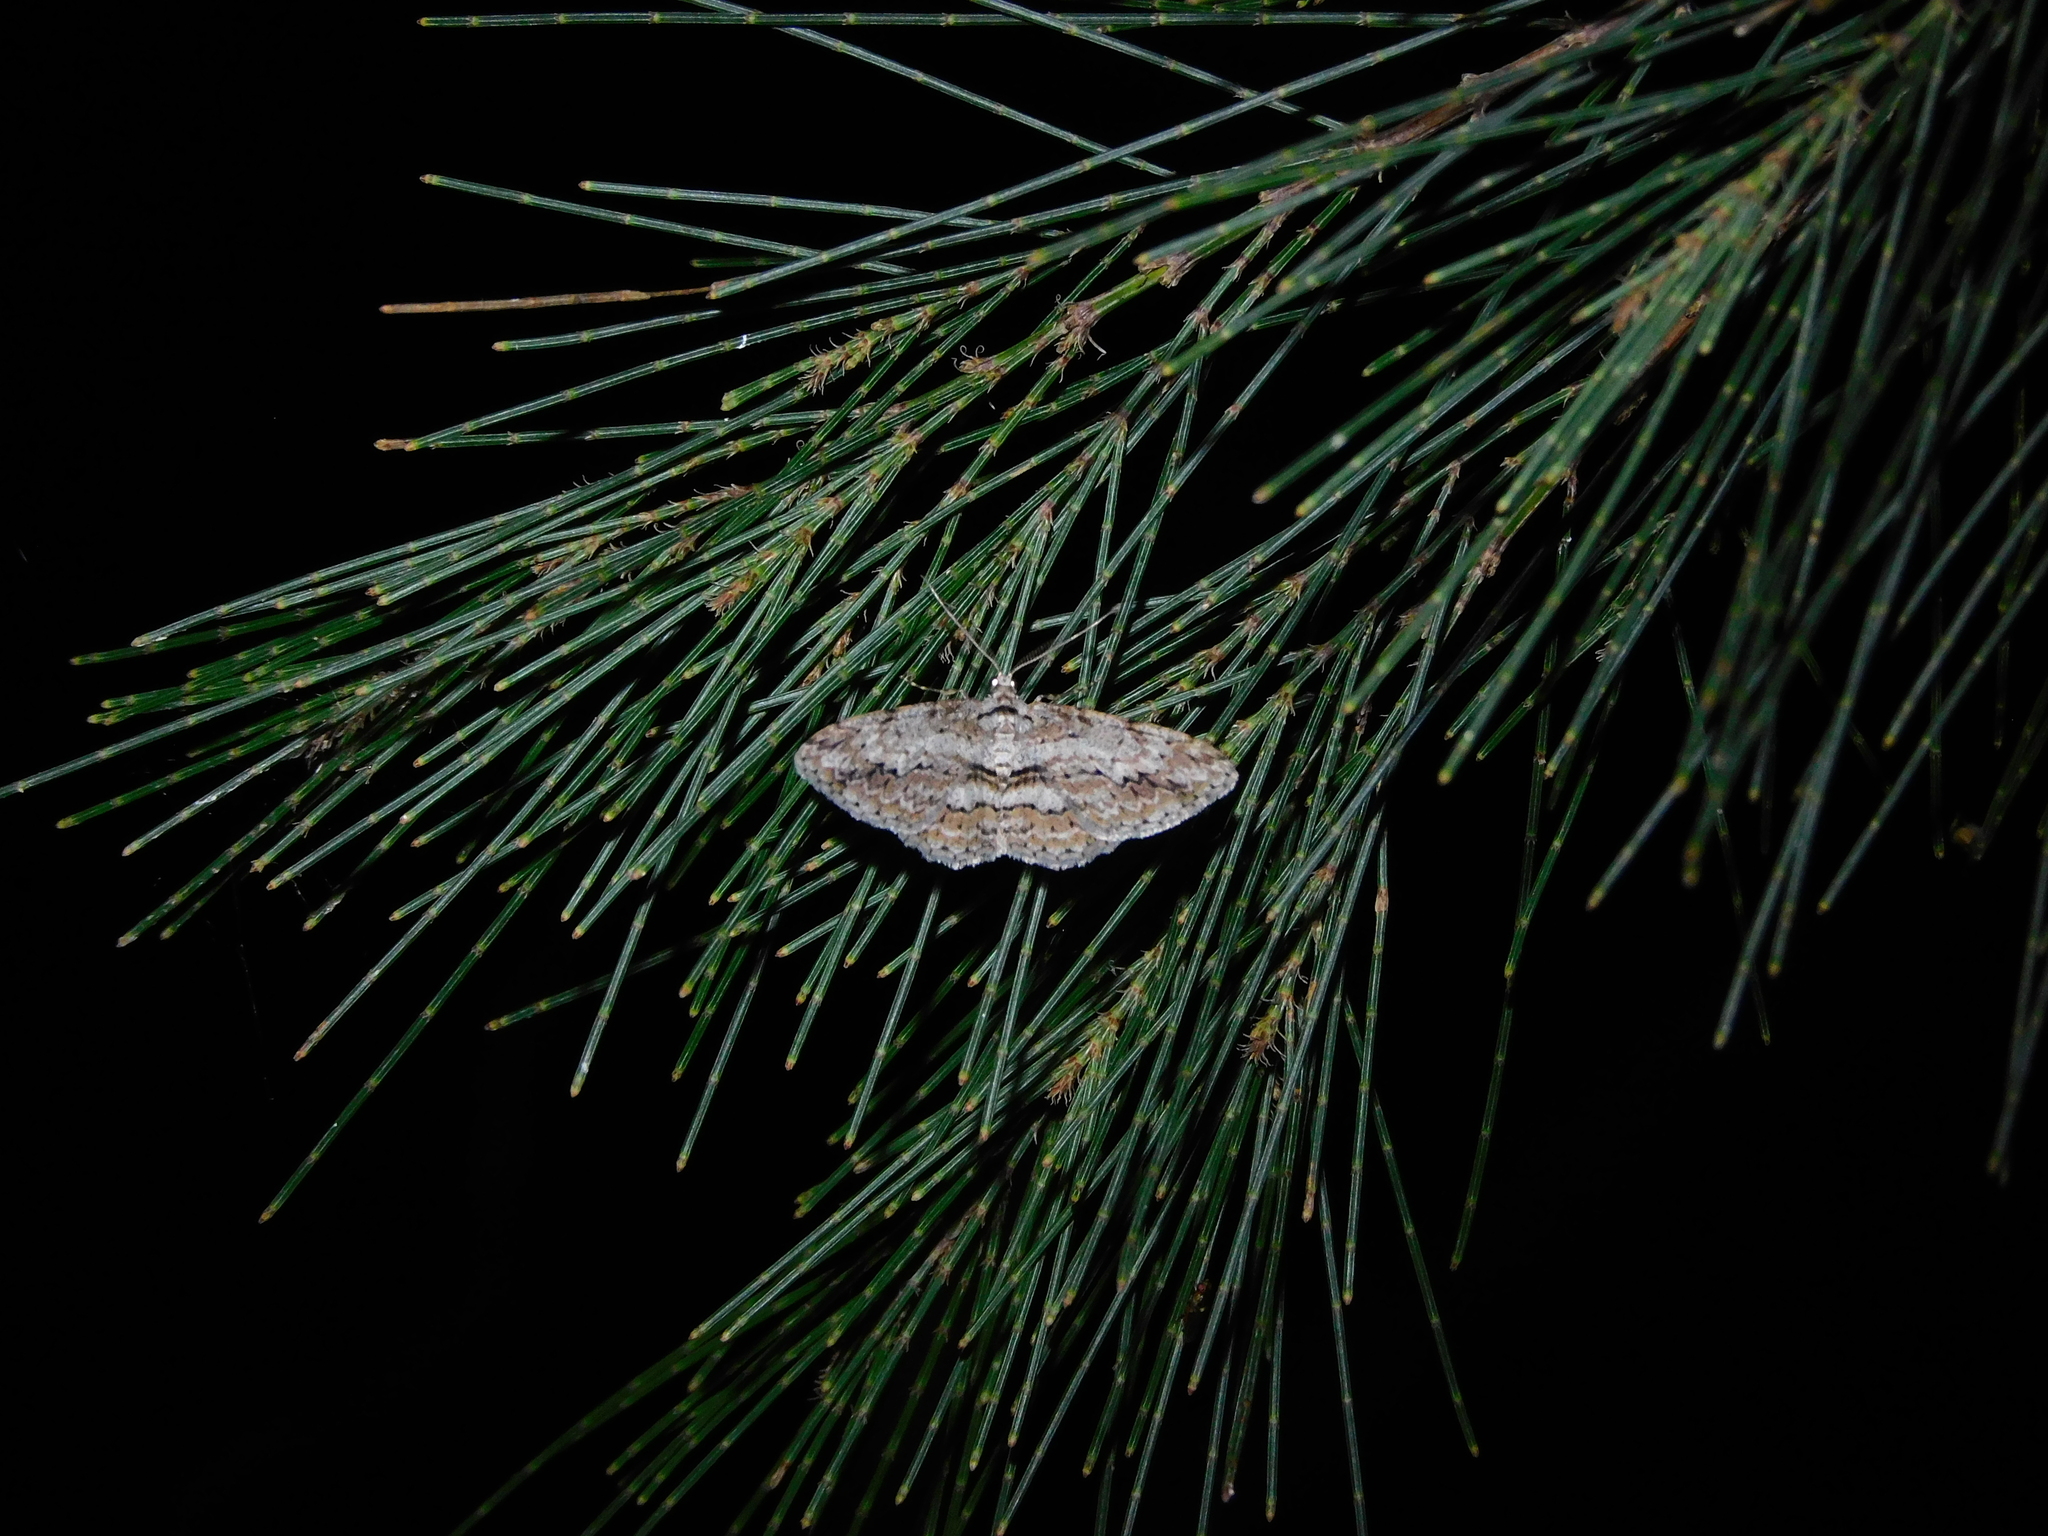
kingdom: Animalia
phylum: Arthropoda
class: Insecta
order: Lepidoptera
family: Geometridae
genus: Didymoctenia
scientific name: Didymoctenia exsuperata
